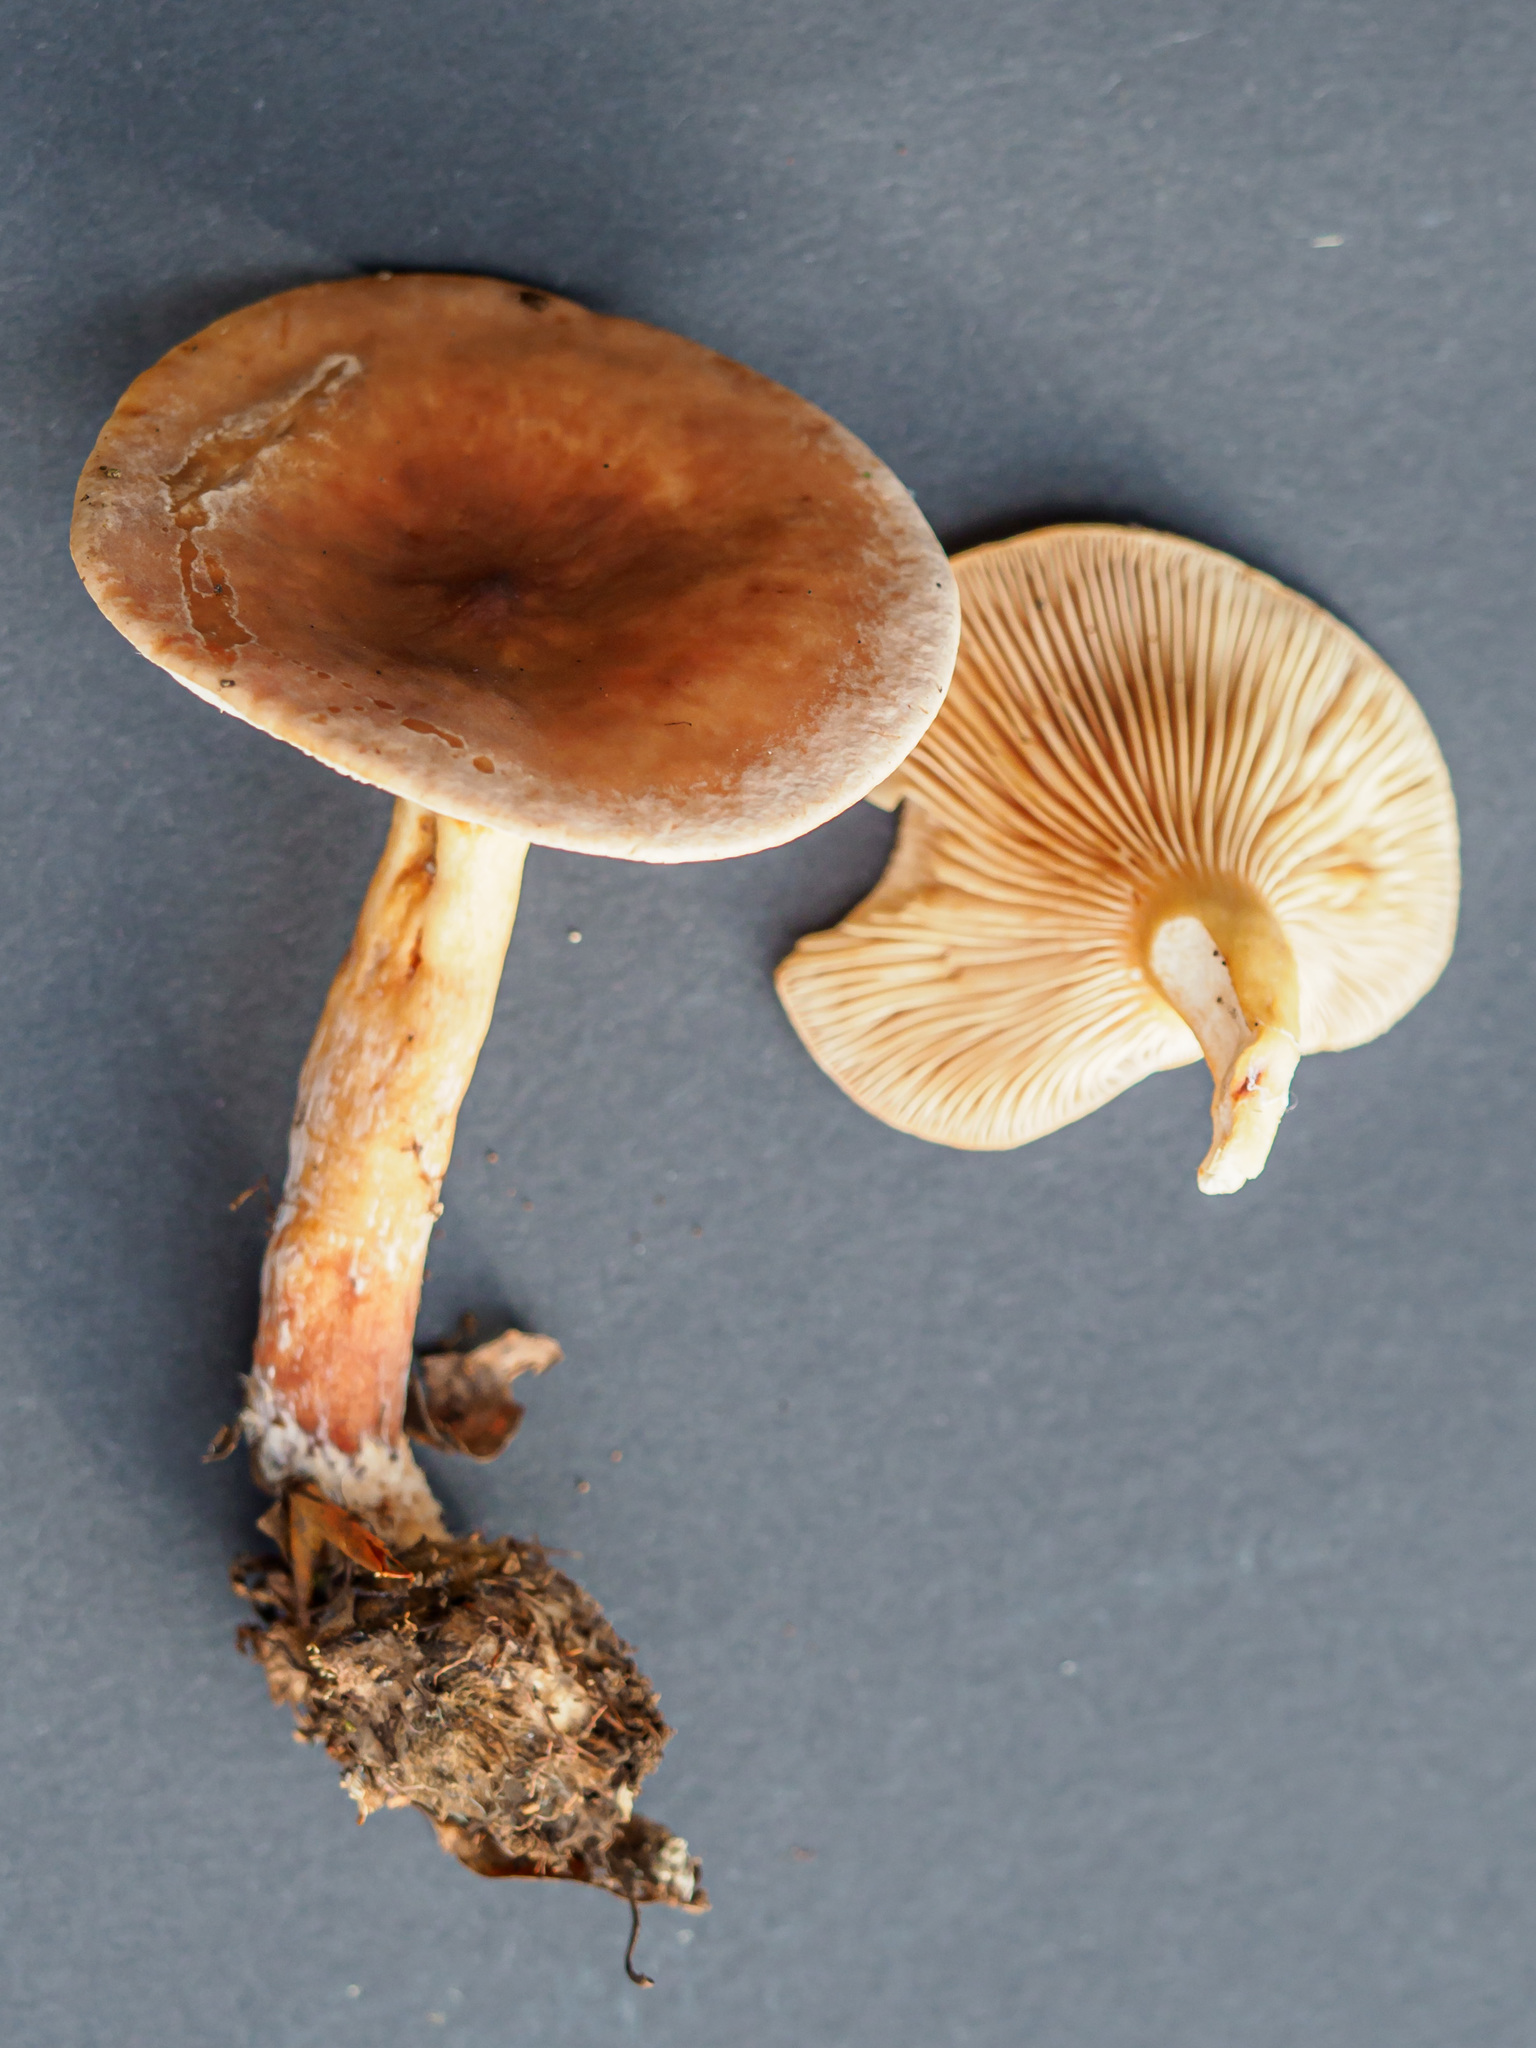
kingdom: Fungi
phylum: Basidiomycota
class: Agaricomycetes
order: Russulales
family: Russulaceae
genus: Lactarius
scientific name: Lactarius subdulcis
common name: Mild milkcap
